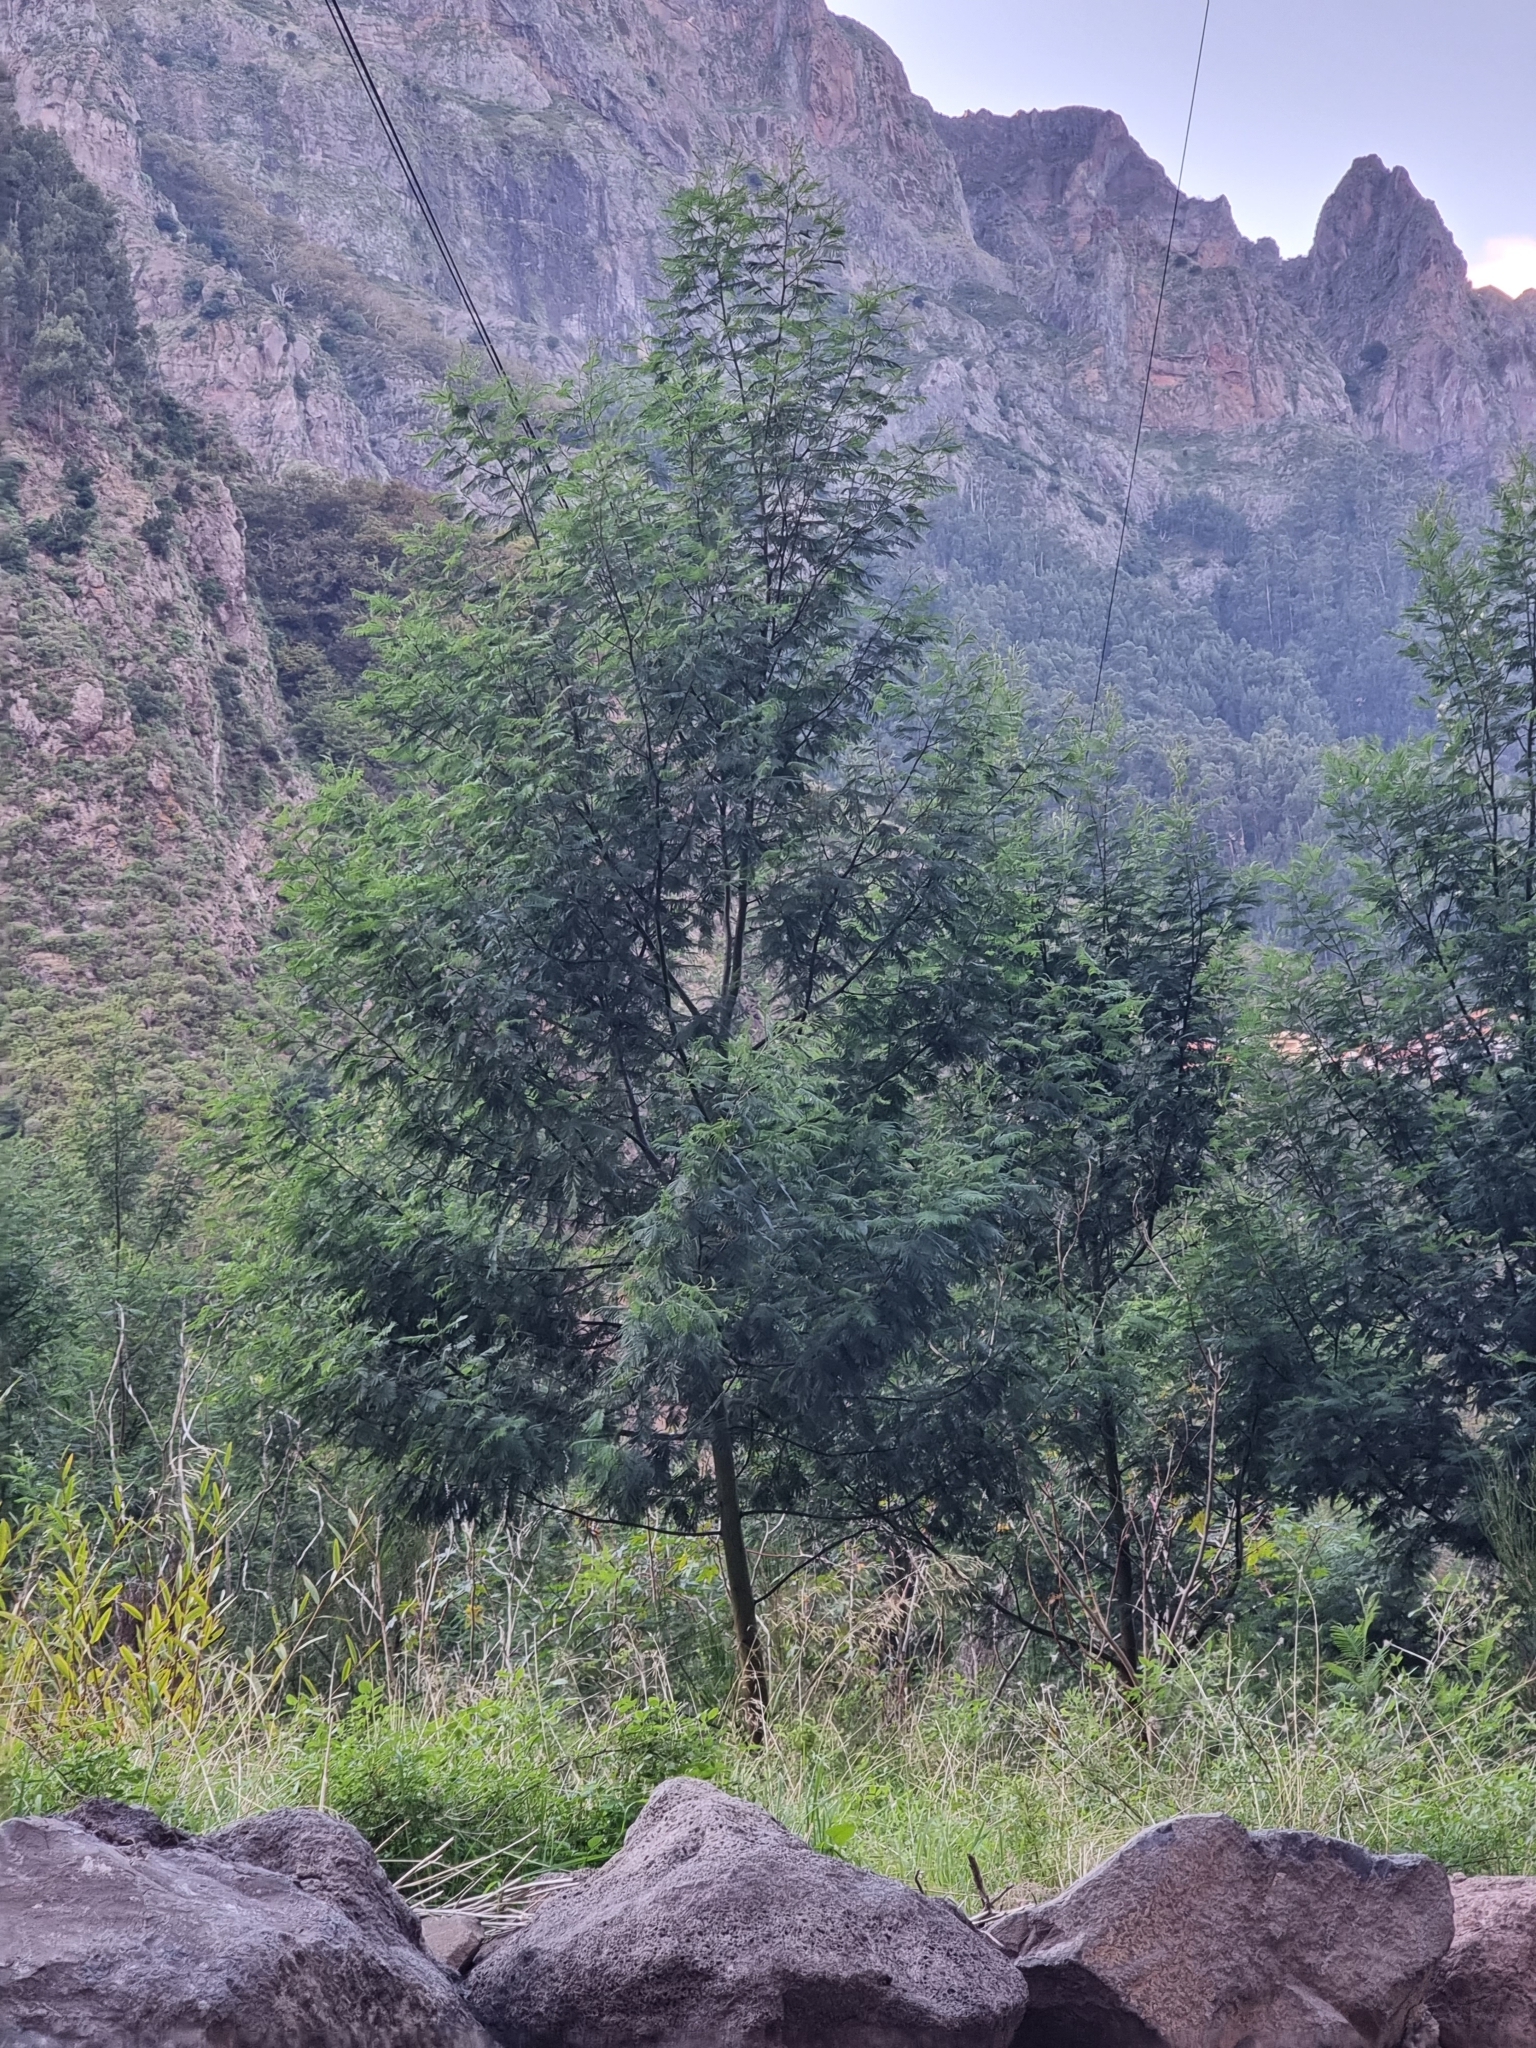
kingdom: Plantae
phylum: Tracheophyta
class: Magnoliopsida
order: Fabales
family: Fabaceae
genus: Acacia
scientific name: Acacia mearnsii
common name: Black wattle
